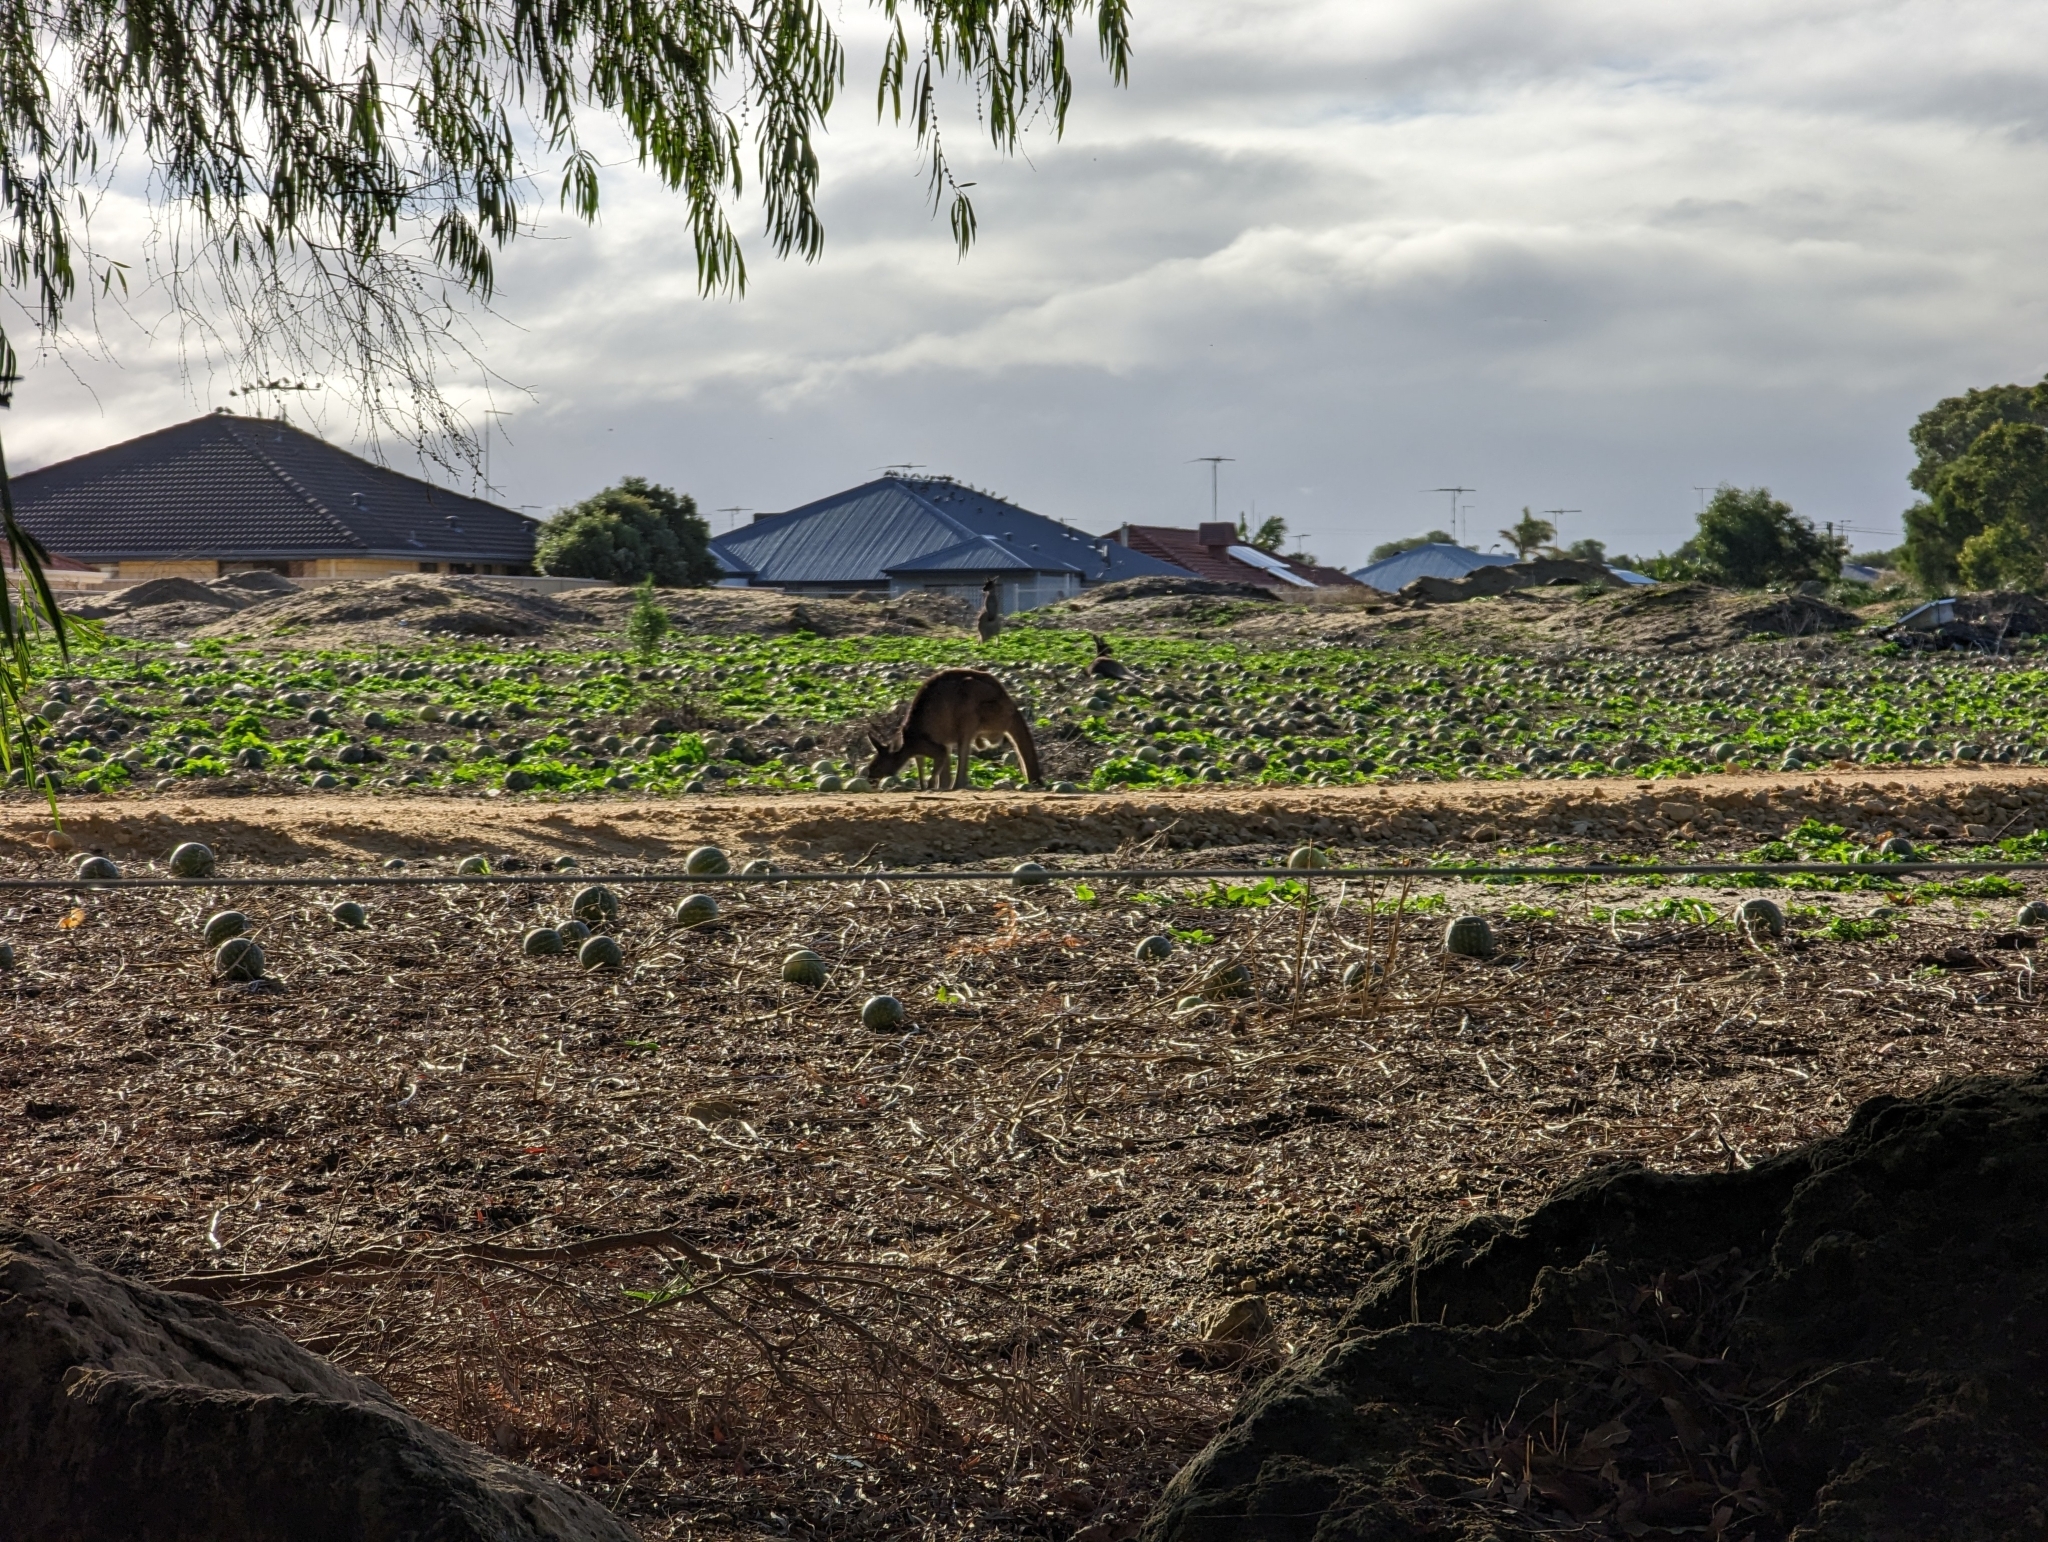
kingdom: Animalia
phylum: Chordata
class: Mammalia
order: Diprotodontia
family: Macropodidae
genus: Macropus
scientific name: Macropus fuliginosus
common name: Western grey kangaroo
